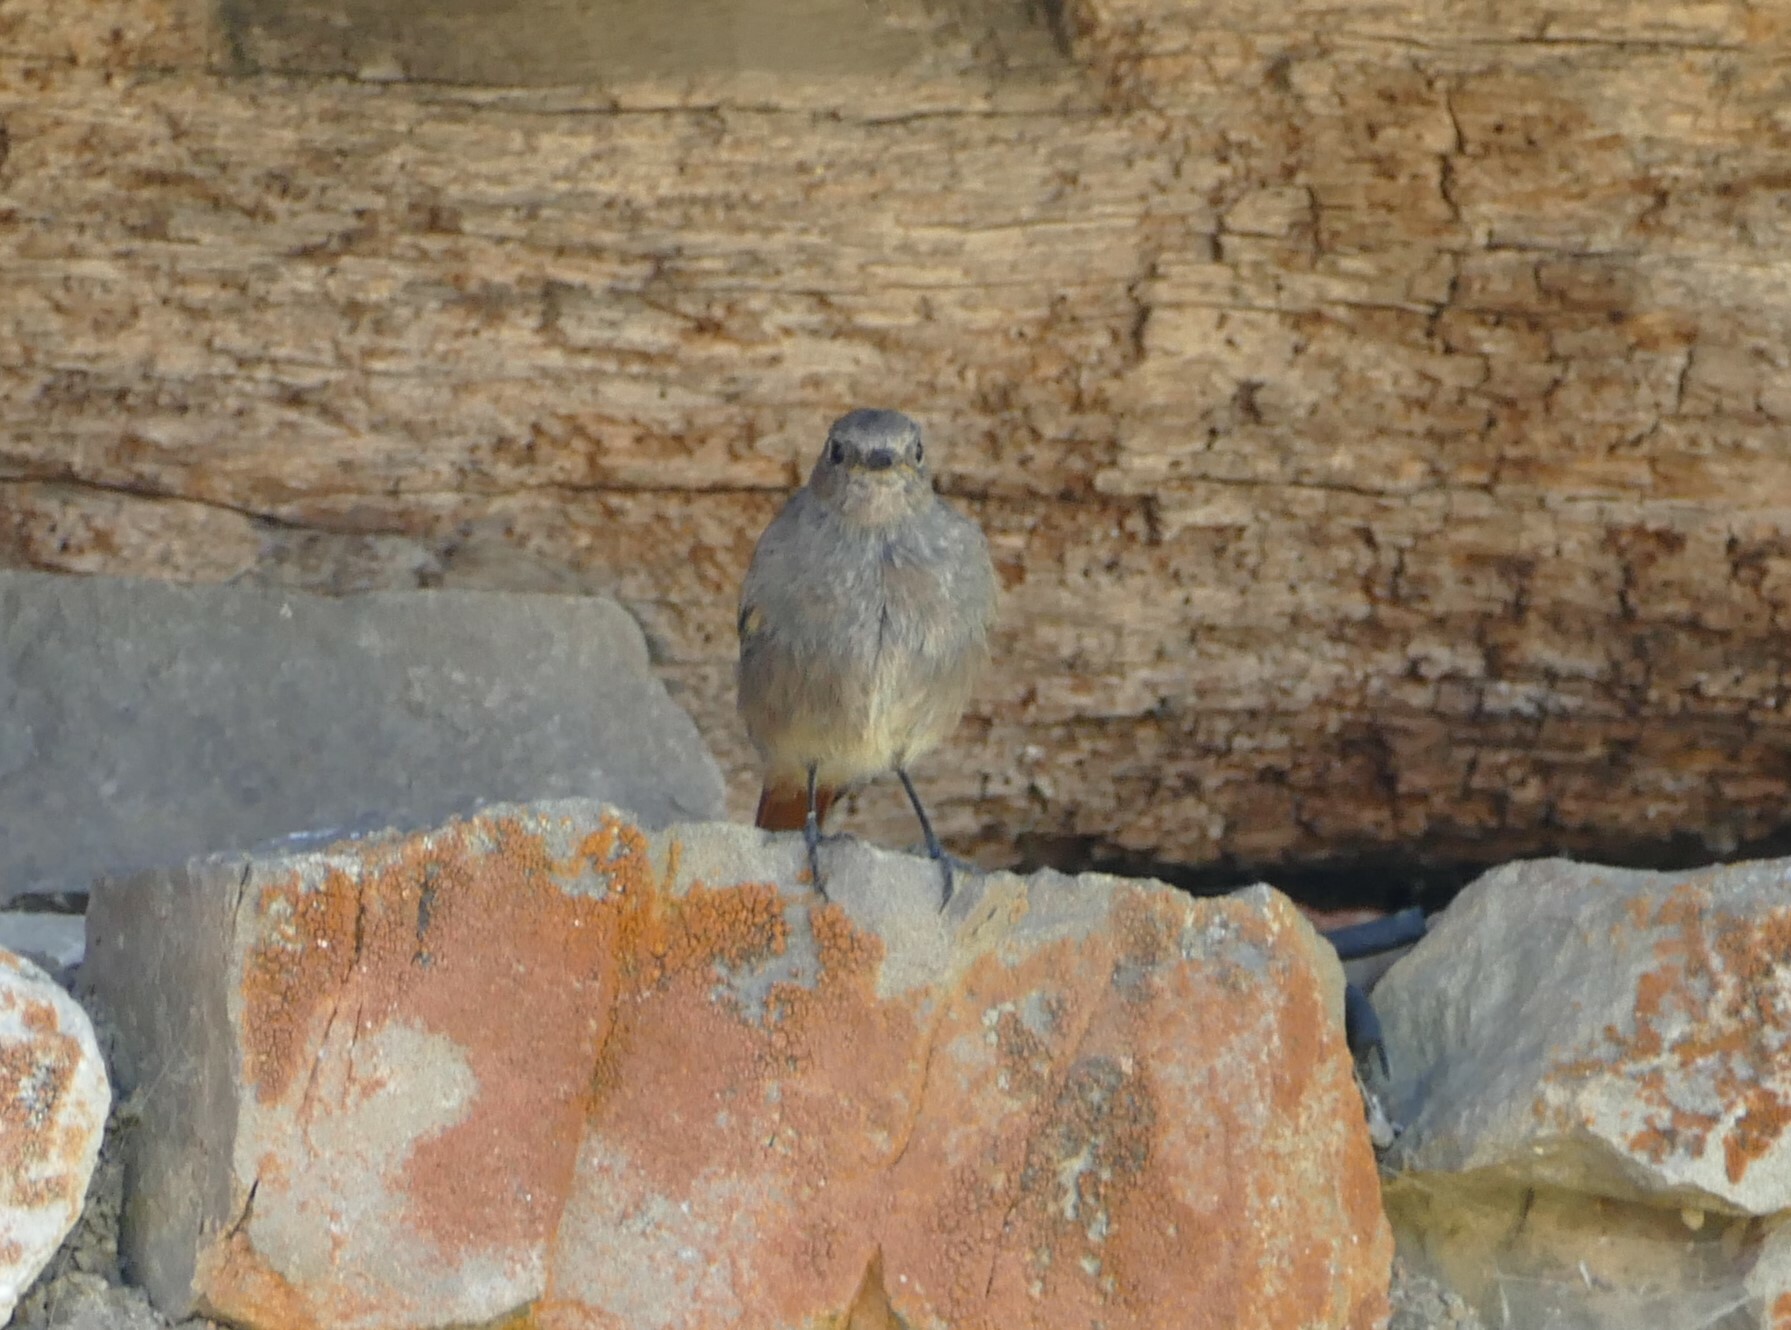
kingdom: Animalia
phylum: Chordata
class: Aves
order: Passeriformes
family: Muscicapidae
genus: Phoenicurus
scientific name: Phoenicurus ochruros
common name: Black redstart
